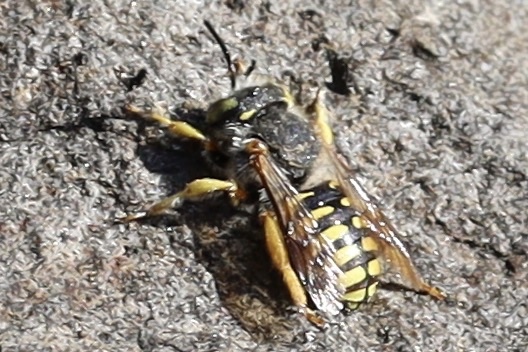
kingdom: Animalia
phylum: Arthropoda
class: Insecta
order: Hymenoptera
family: Megachilidae
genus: Anthidium
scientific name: Anthidium oblongatum
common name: Oblong wool carder bee
